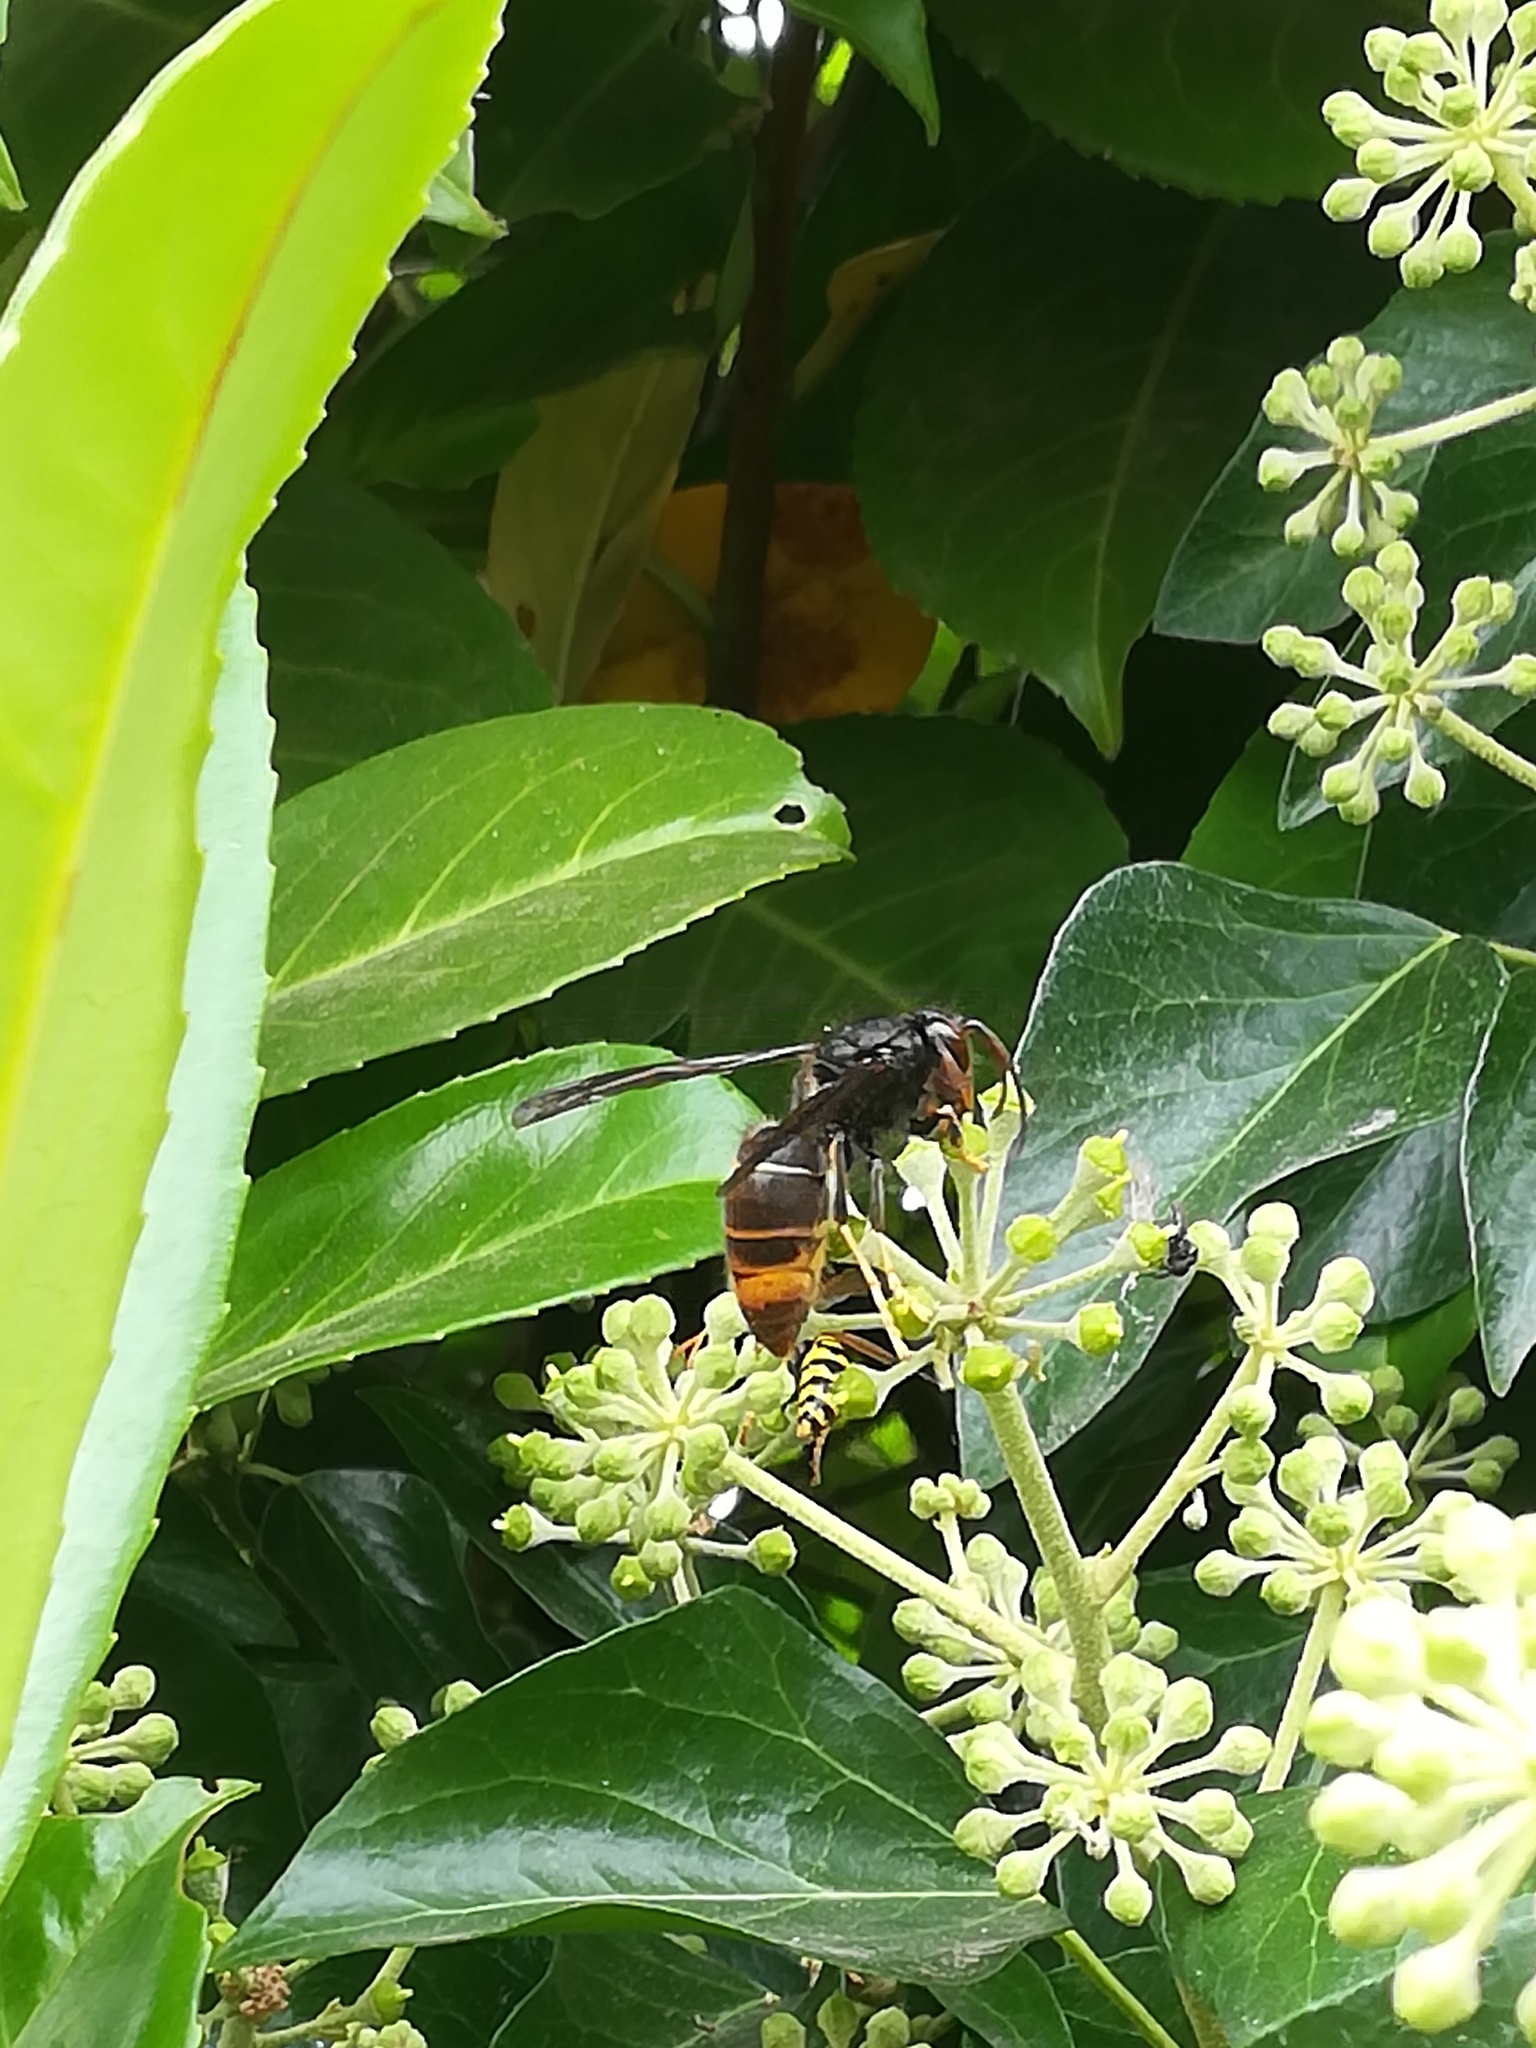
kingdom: Animalia
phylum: Arthropoda
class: Insecta
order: Hymenoptera
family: Vespidae
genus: Vespa
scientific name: Vespa velutina
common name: Asian hornet
